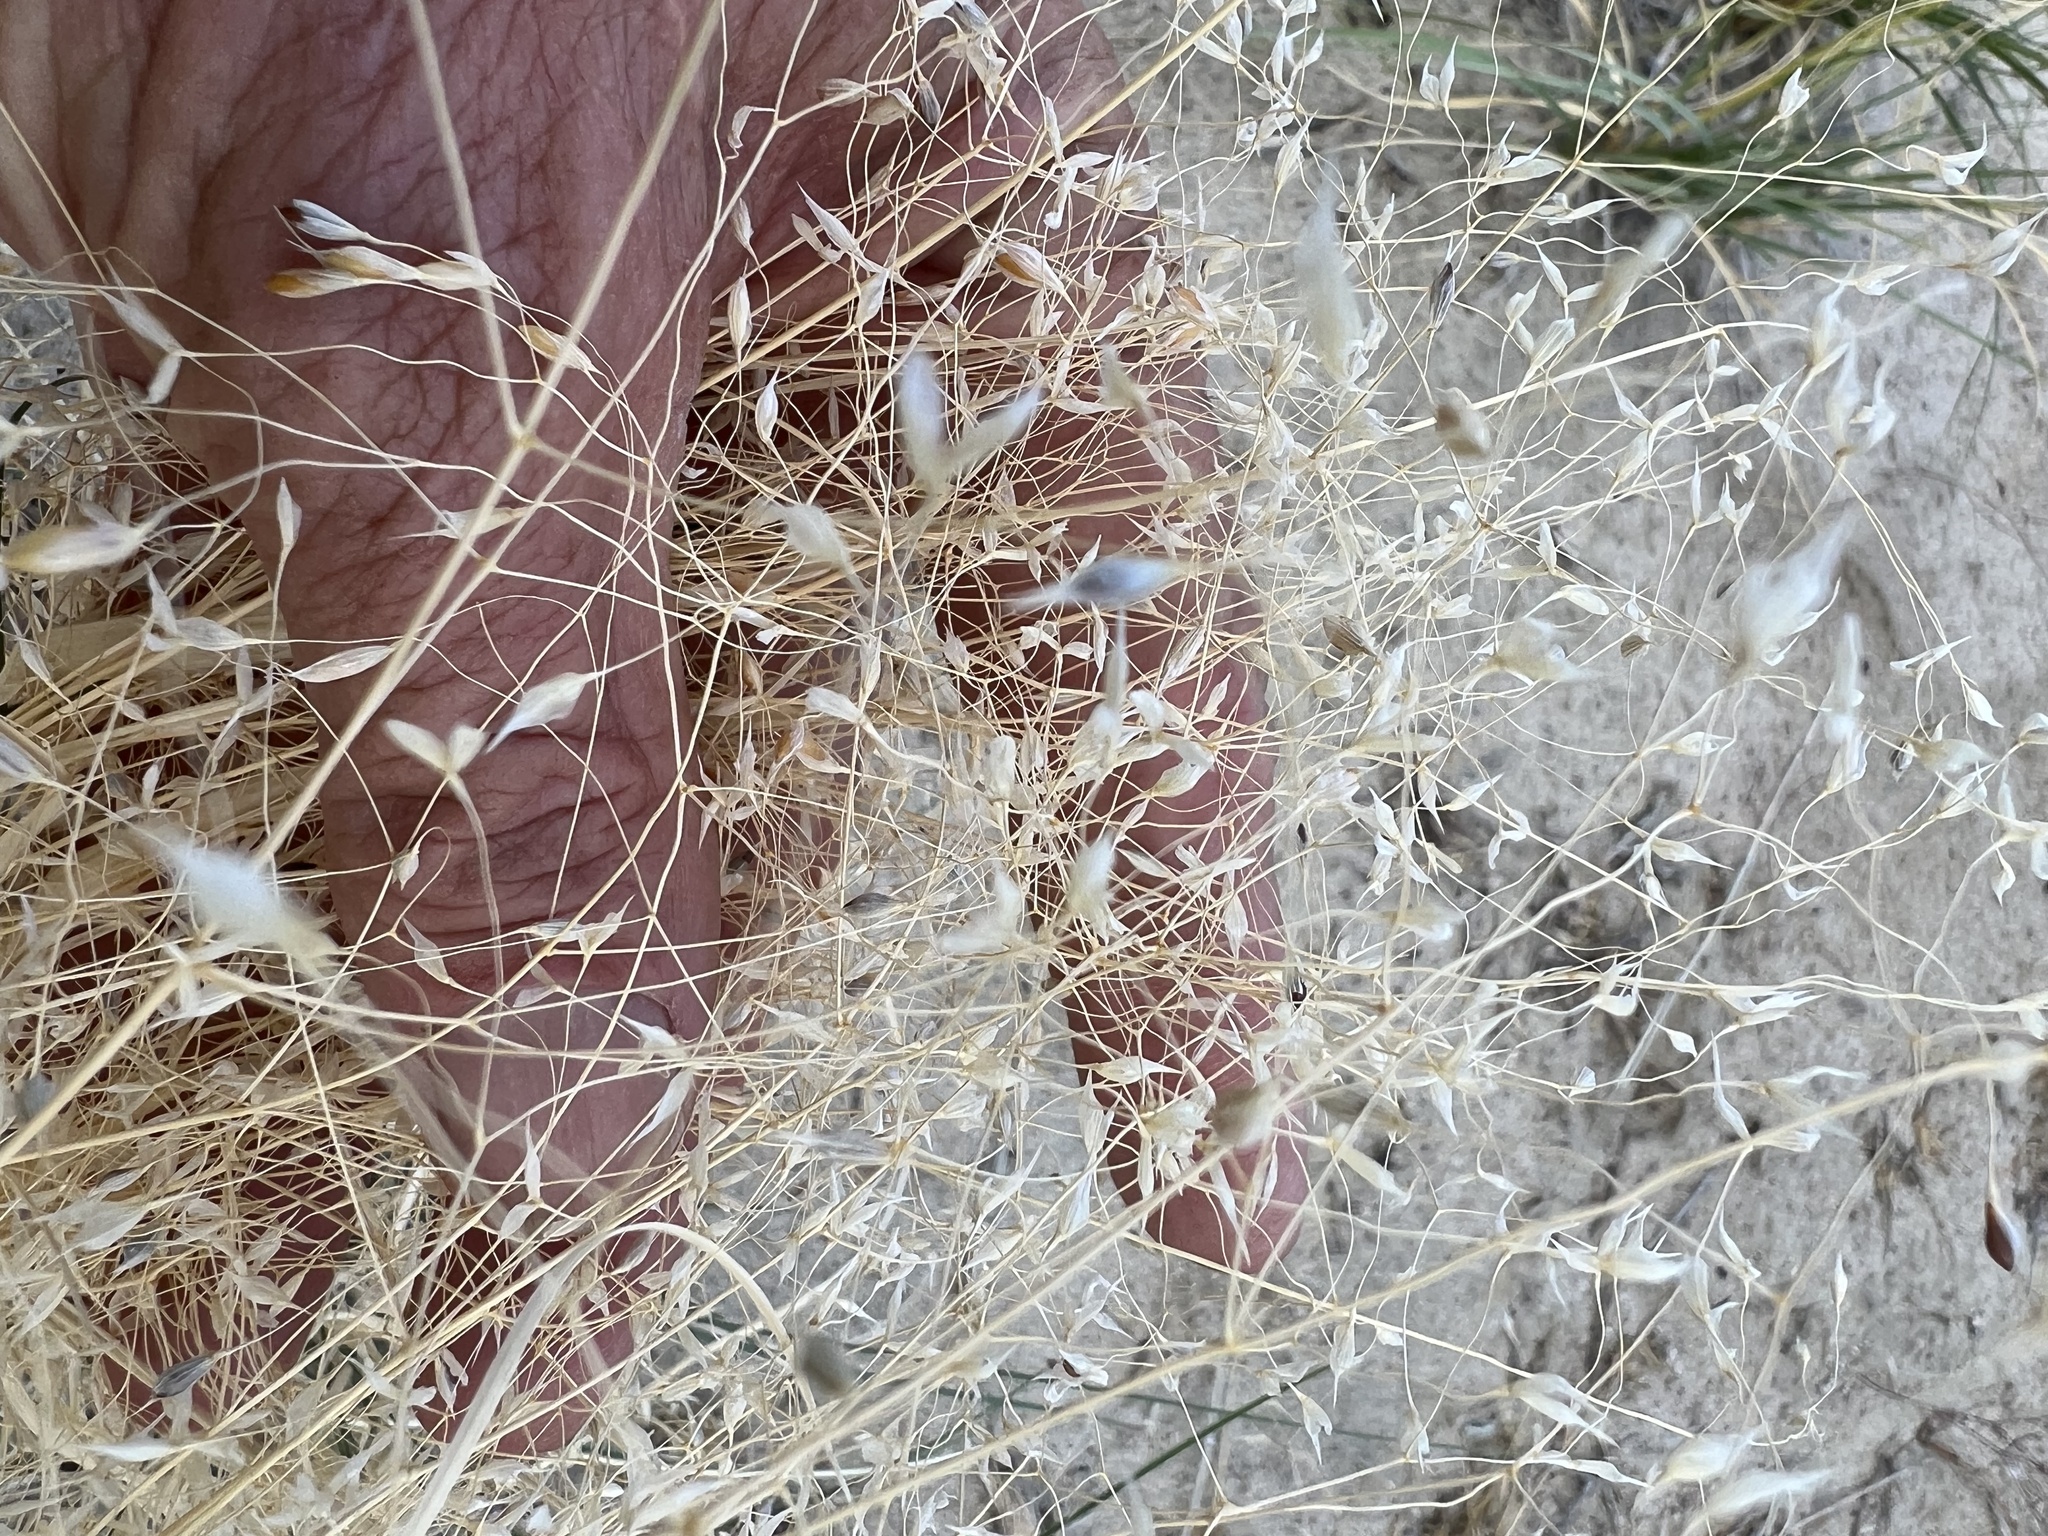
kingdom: Plantae
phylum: Tracheophyta
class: Liliopsida
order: Poales
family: Poaceae
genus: Eriocoma
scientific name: Eriocoma hymenoides
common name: Indian mountain ricegrass
